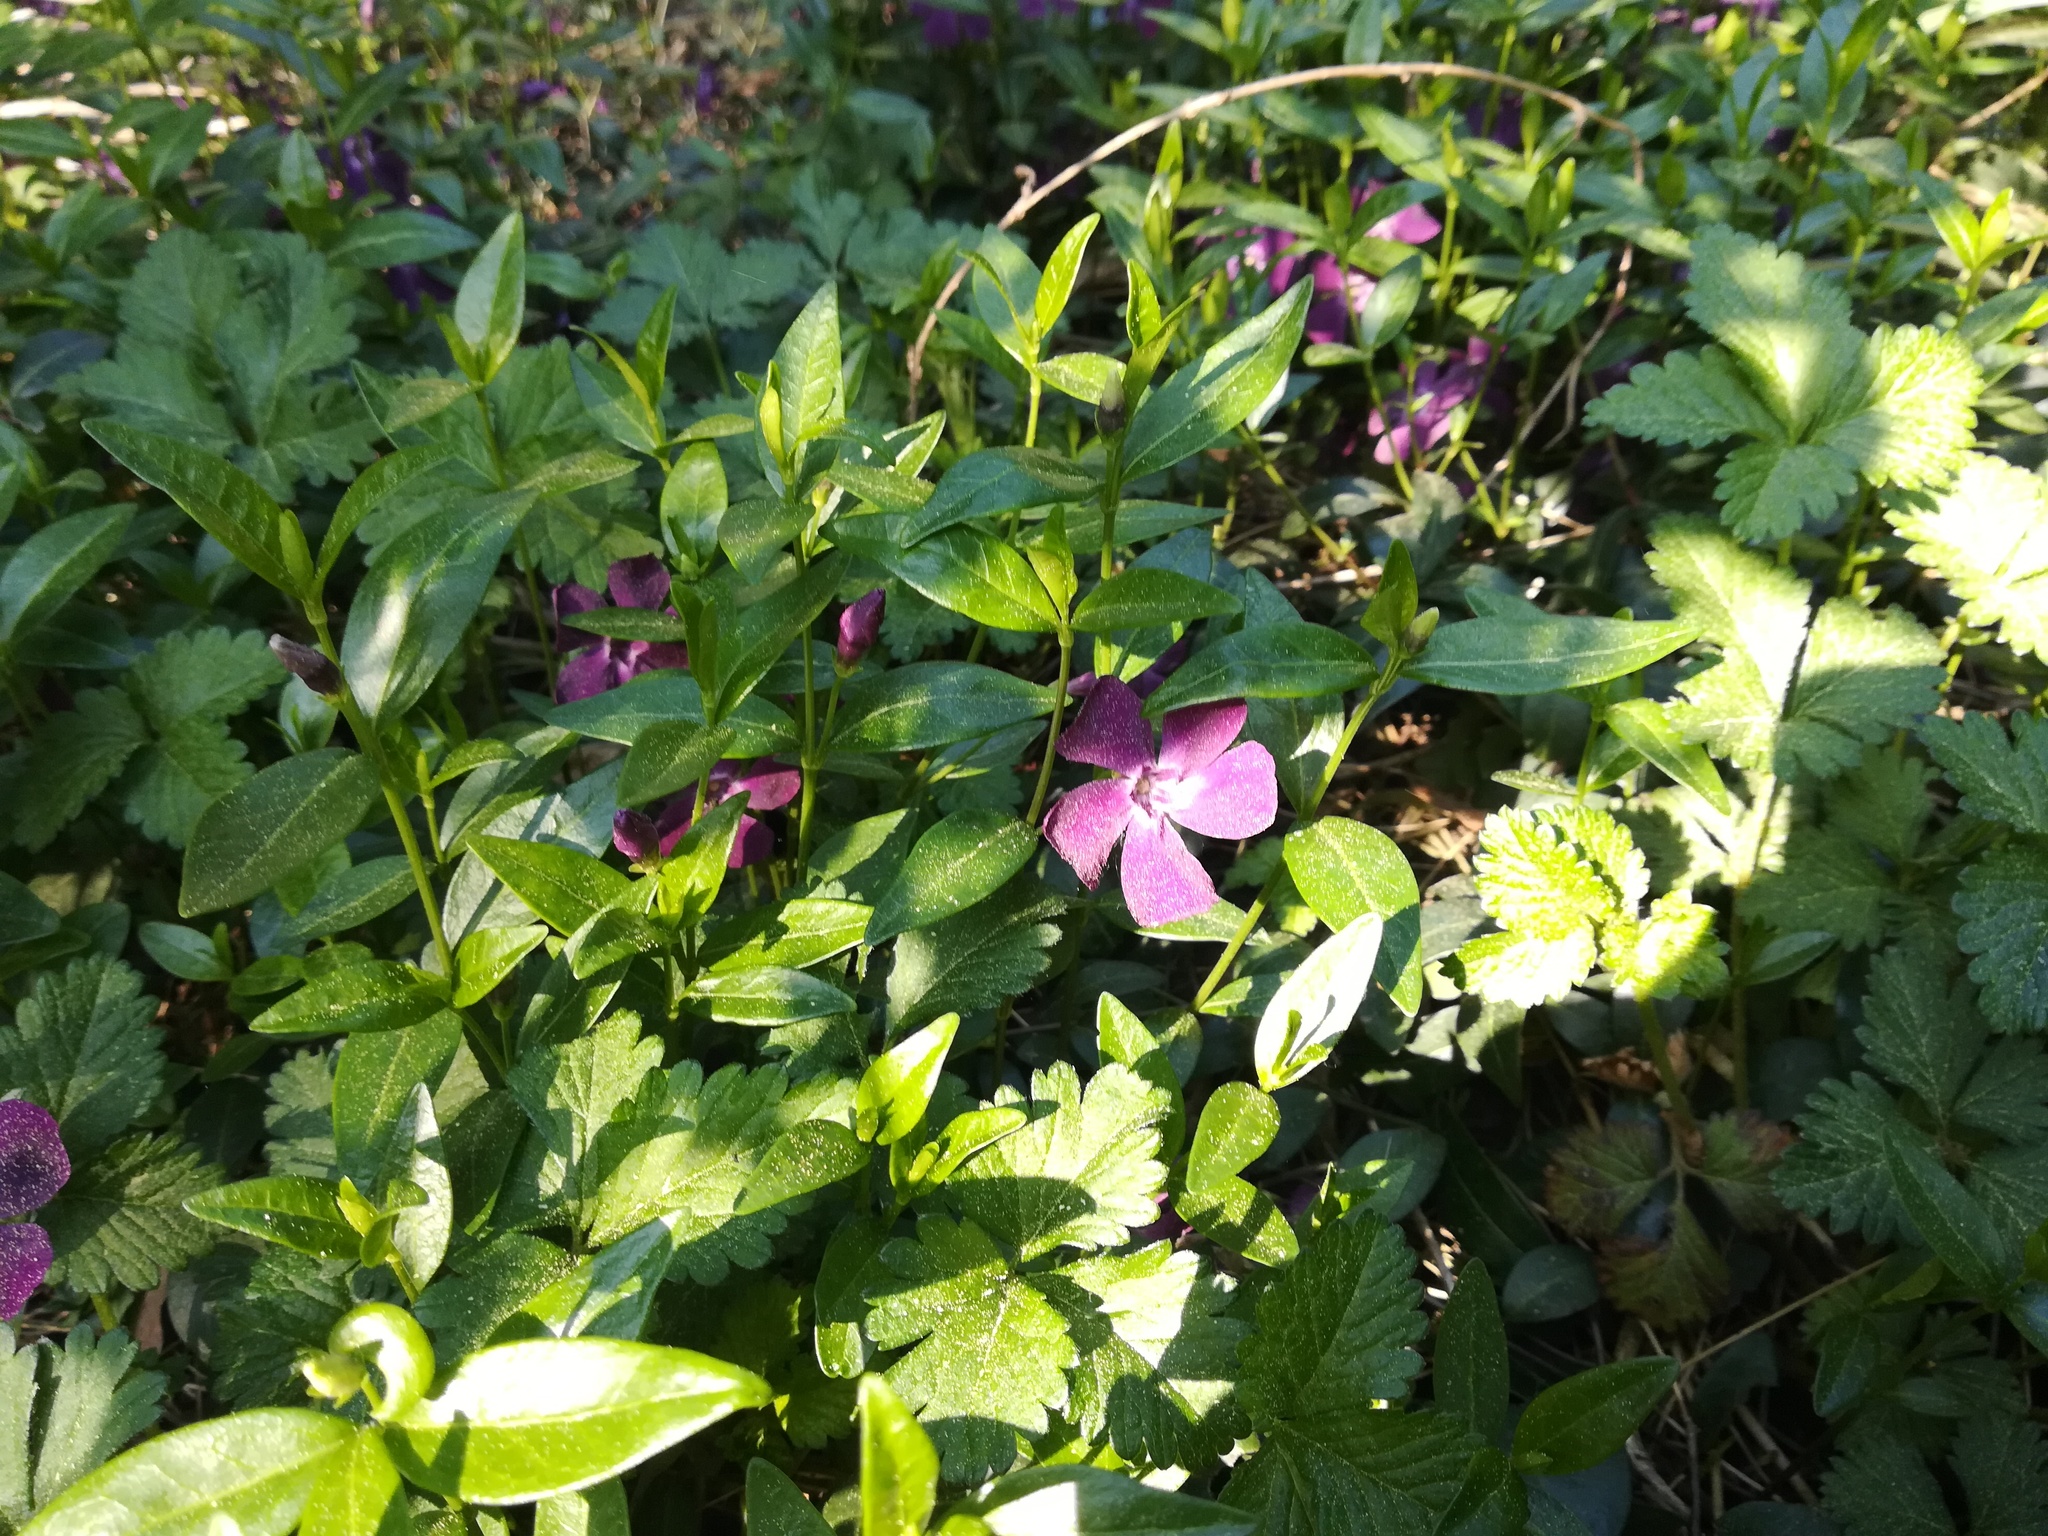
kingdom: Plantae
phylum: Tracheophyta
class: Magnoliopsida
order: Gentianales
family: Apocynaceae
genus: Vinca
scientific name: Vinca minor
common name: Lesser periwinkle
